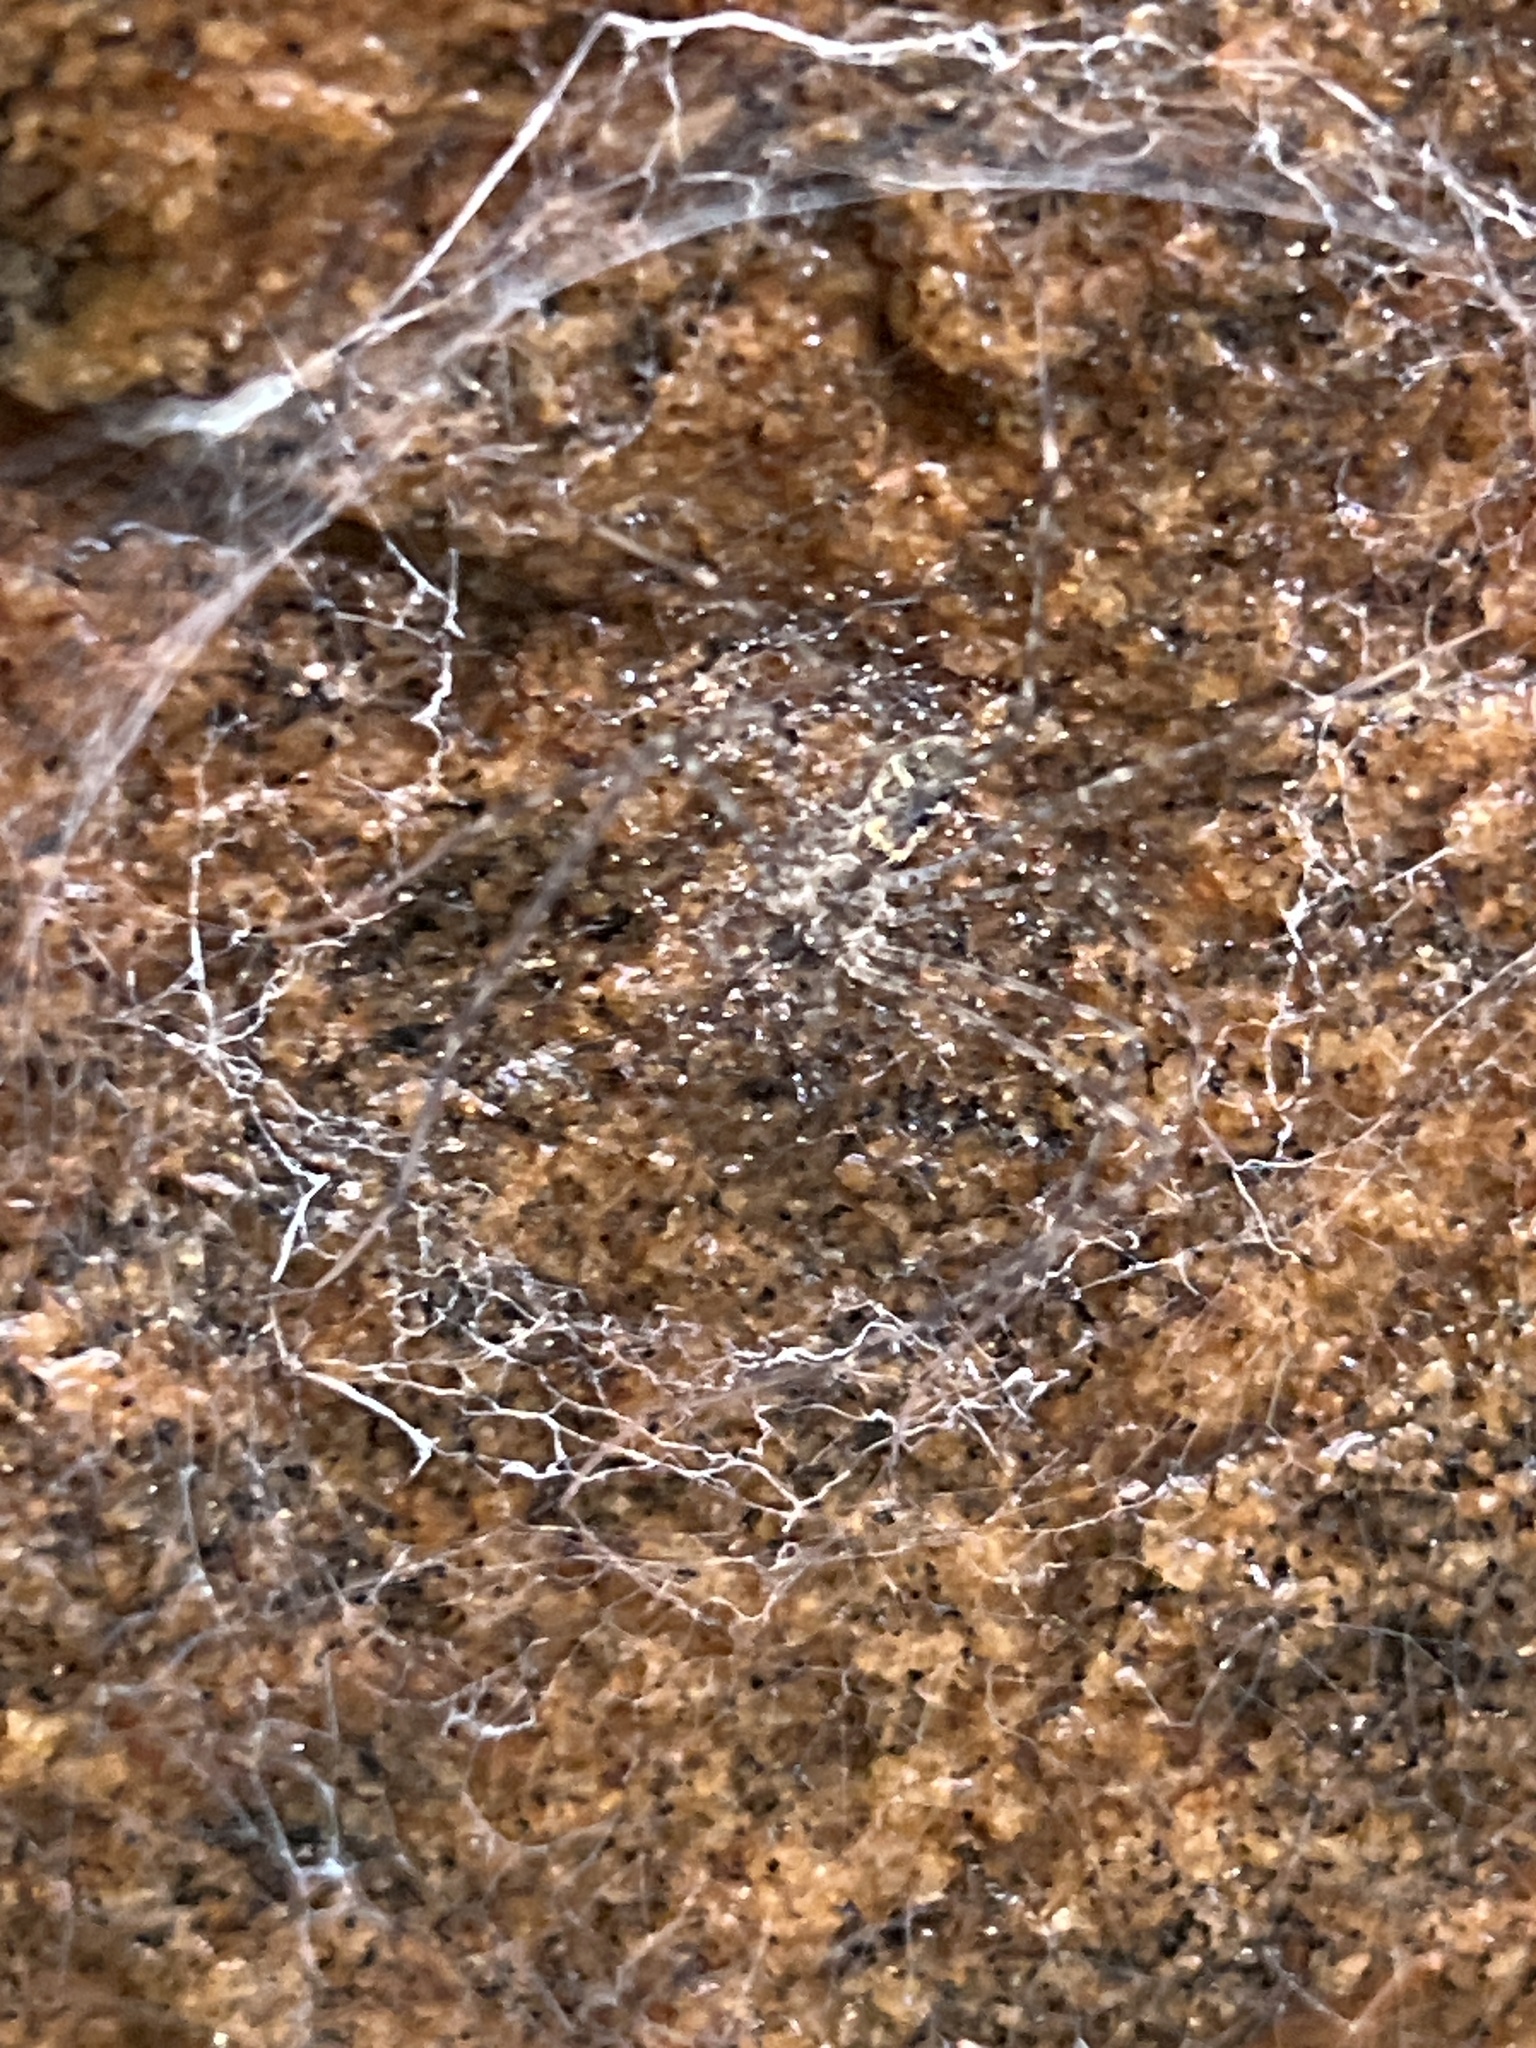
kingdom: Animalia
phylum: Arthropoda
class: Arachnida
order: Araneae
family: Hypochilidae
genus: Hypochilus
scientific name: Hypochilus pococki
